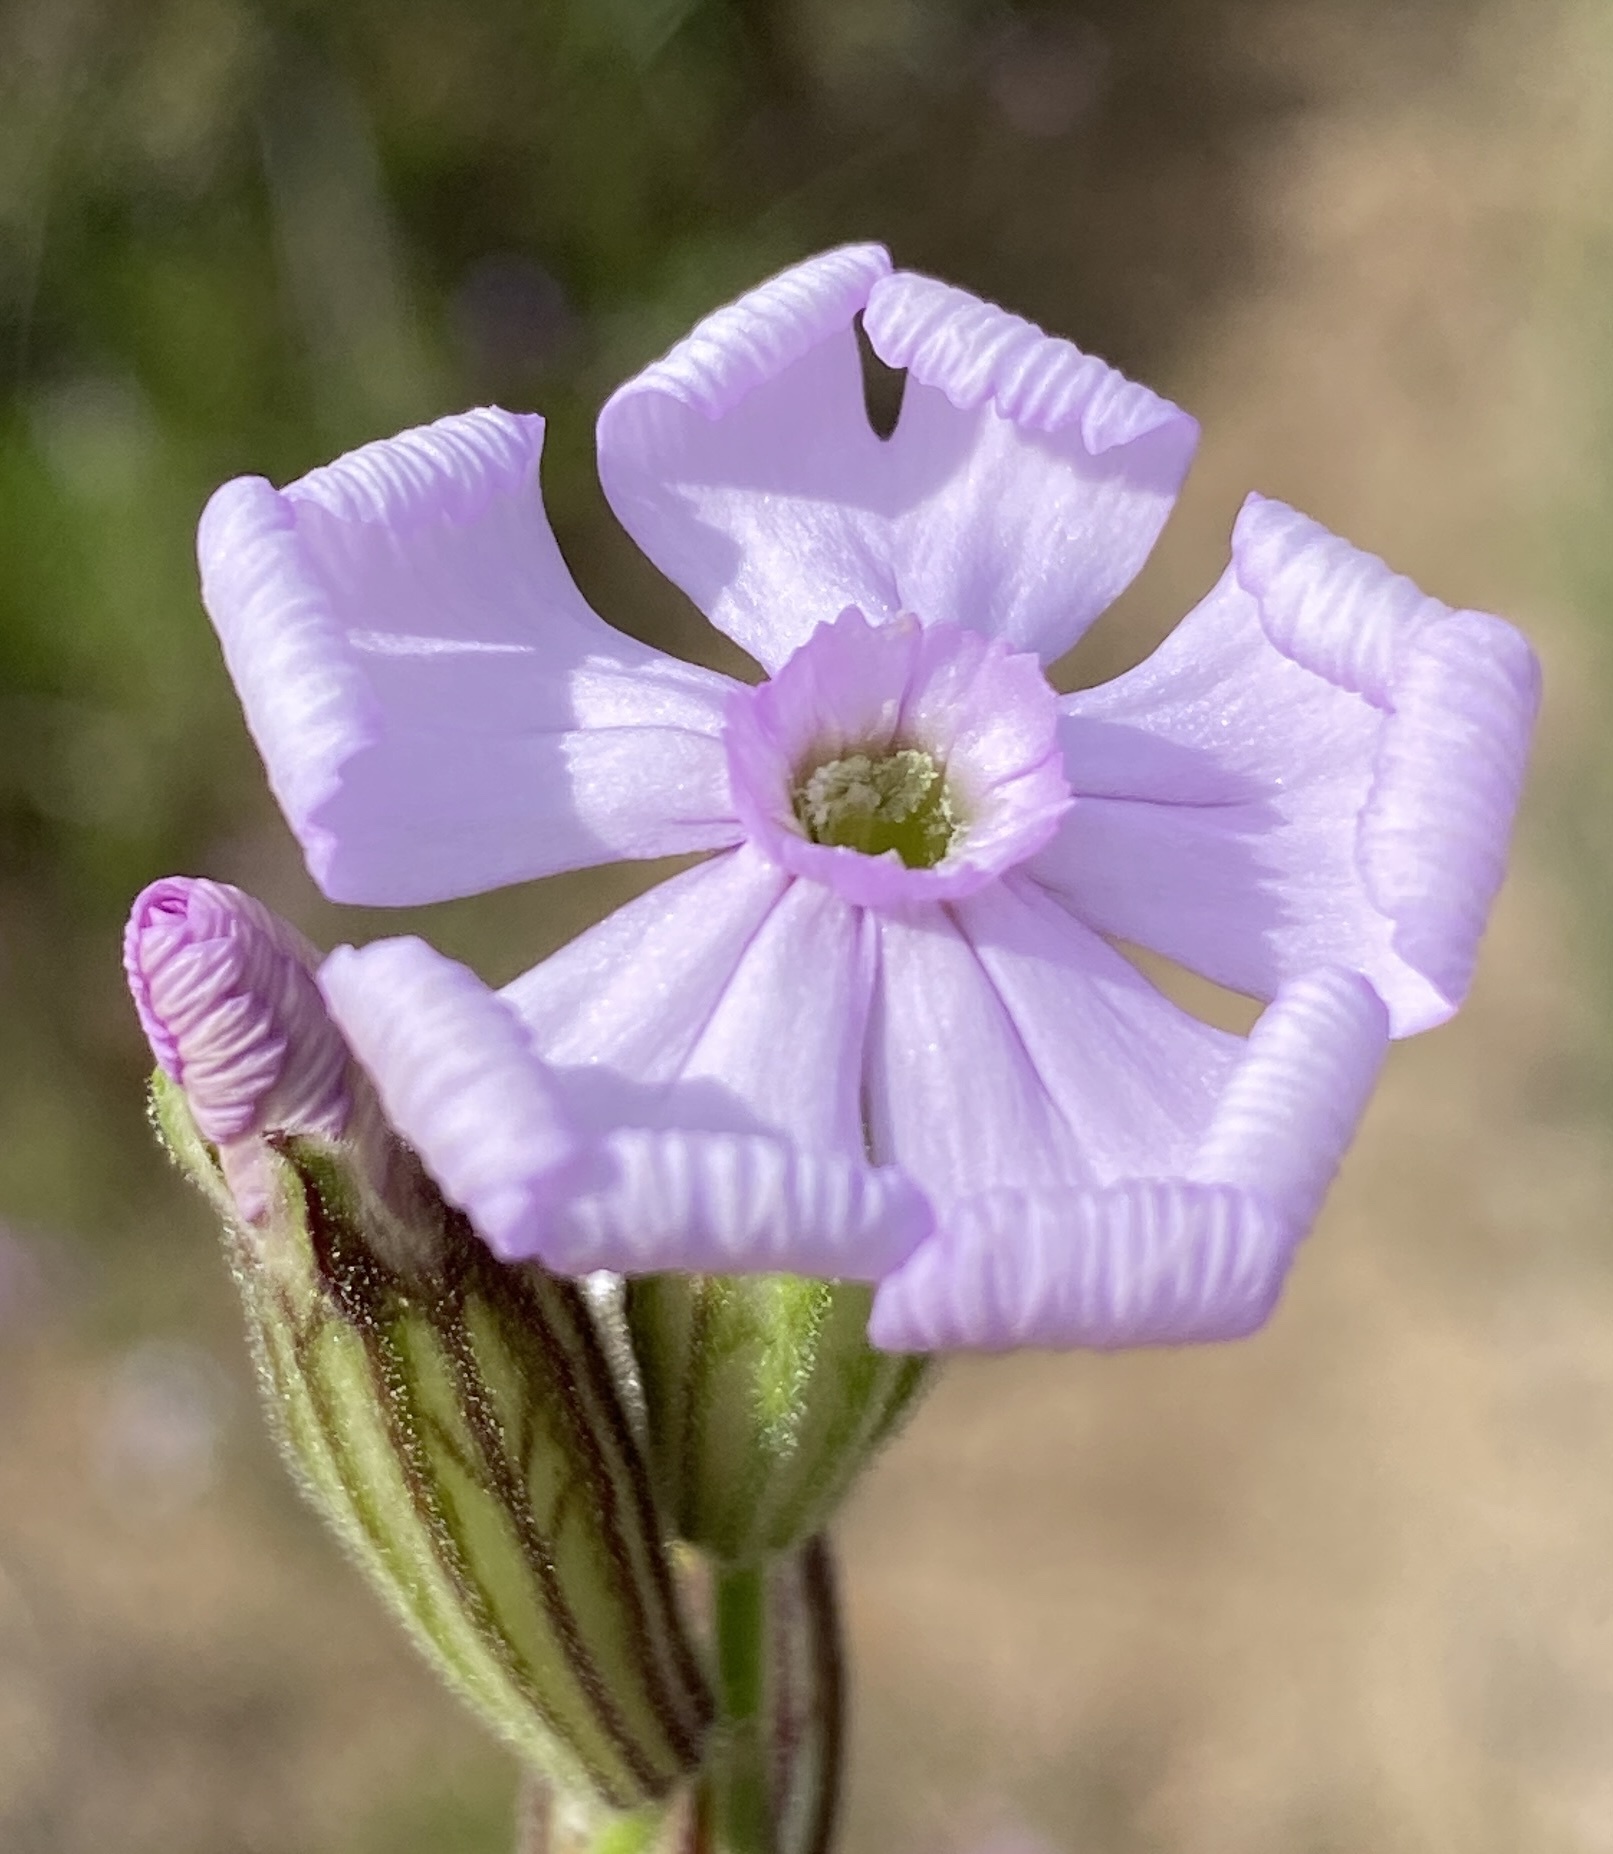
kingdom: Plantae
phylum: Tracheophyta
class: Magnoliopsida
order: Caryophyllales
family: Caryophyllaceae
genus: Silene
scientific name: Silene rigens
